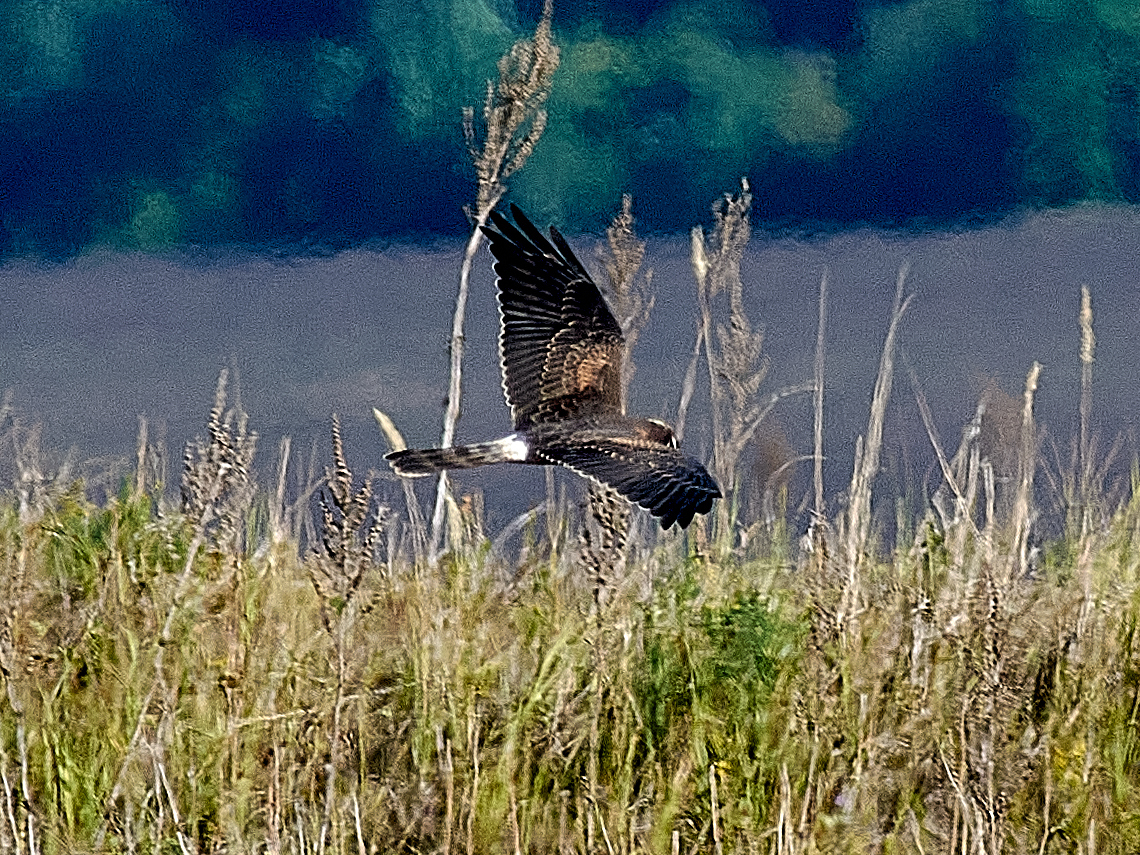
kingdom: Animalia
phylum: Chordata
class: Aves
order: Accipitriformes
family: Accipitridae
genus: Circus
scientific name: Circus pygargus
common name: Montagu's harrier
